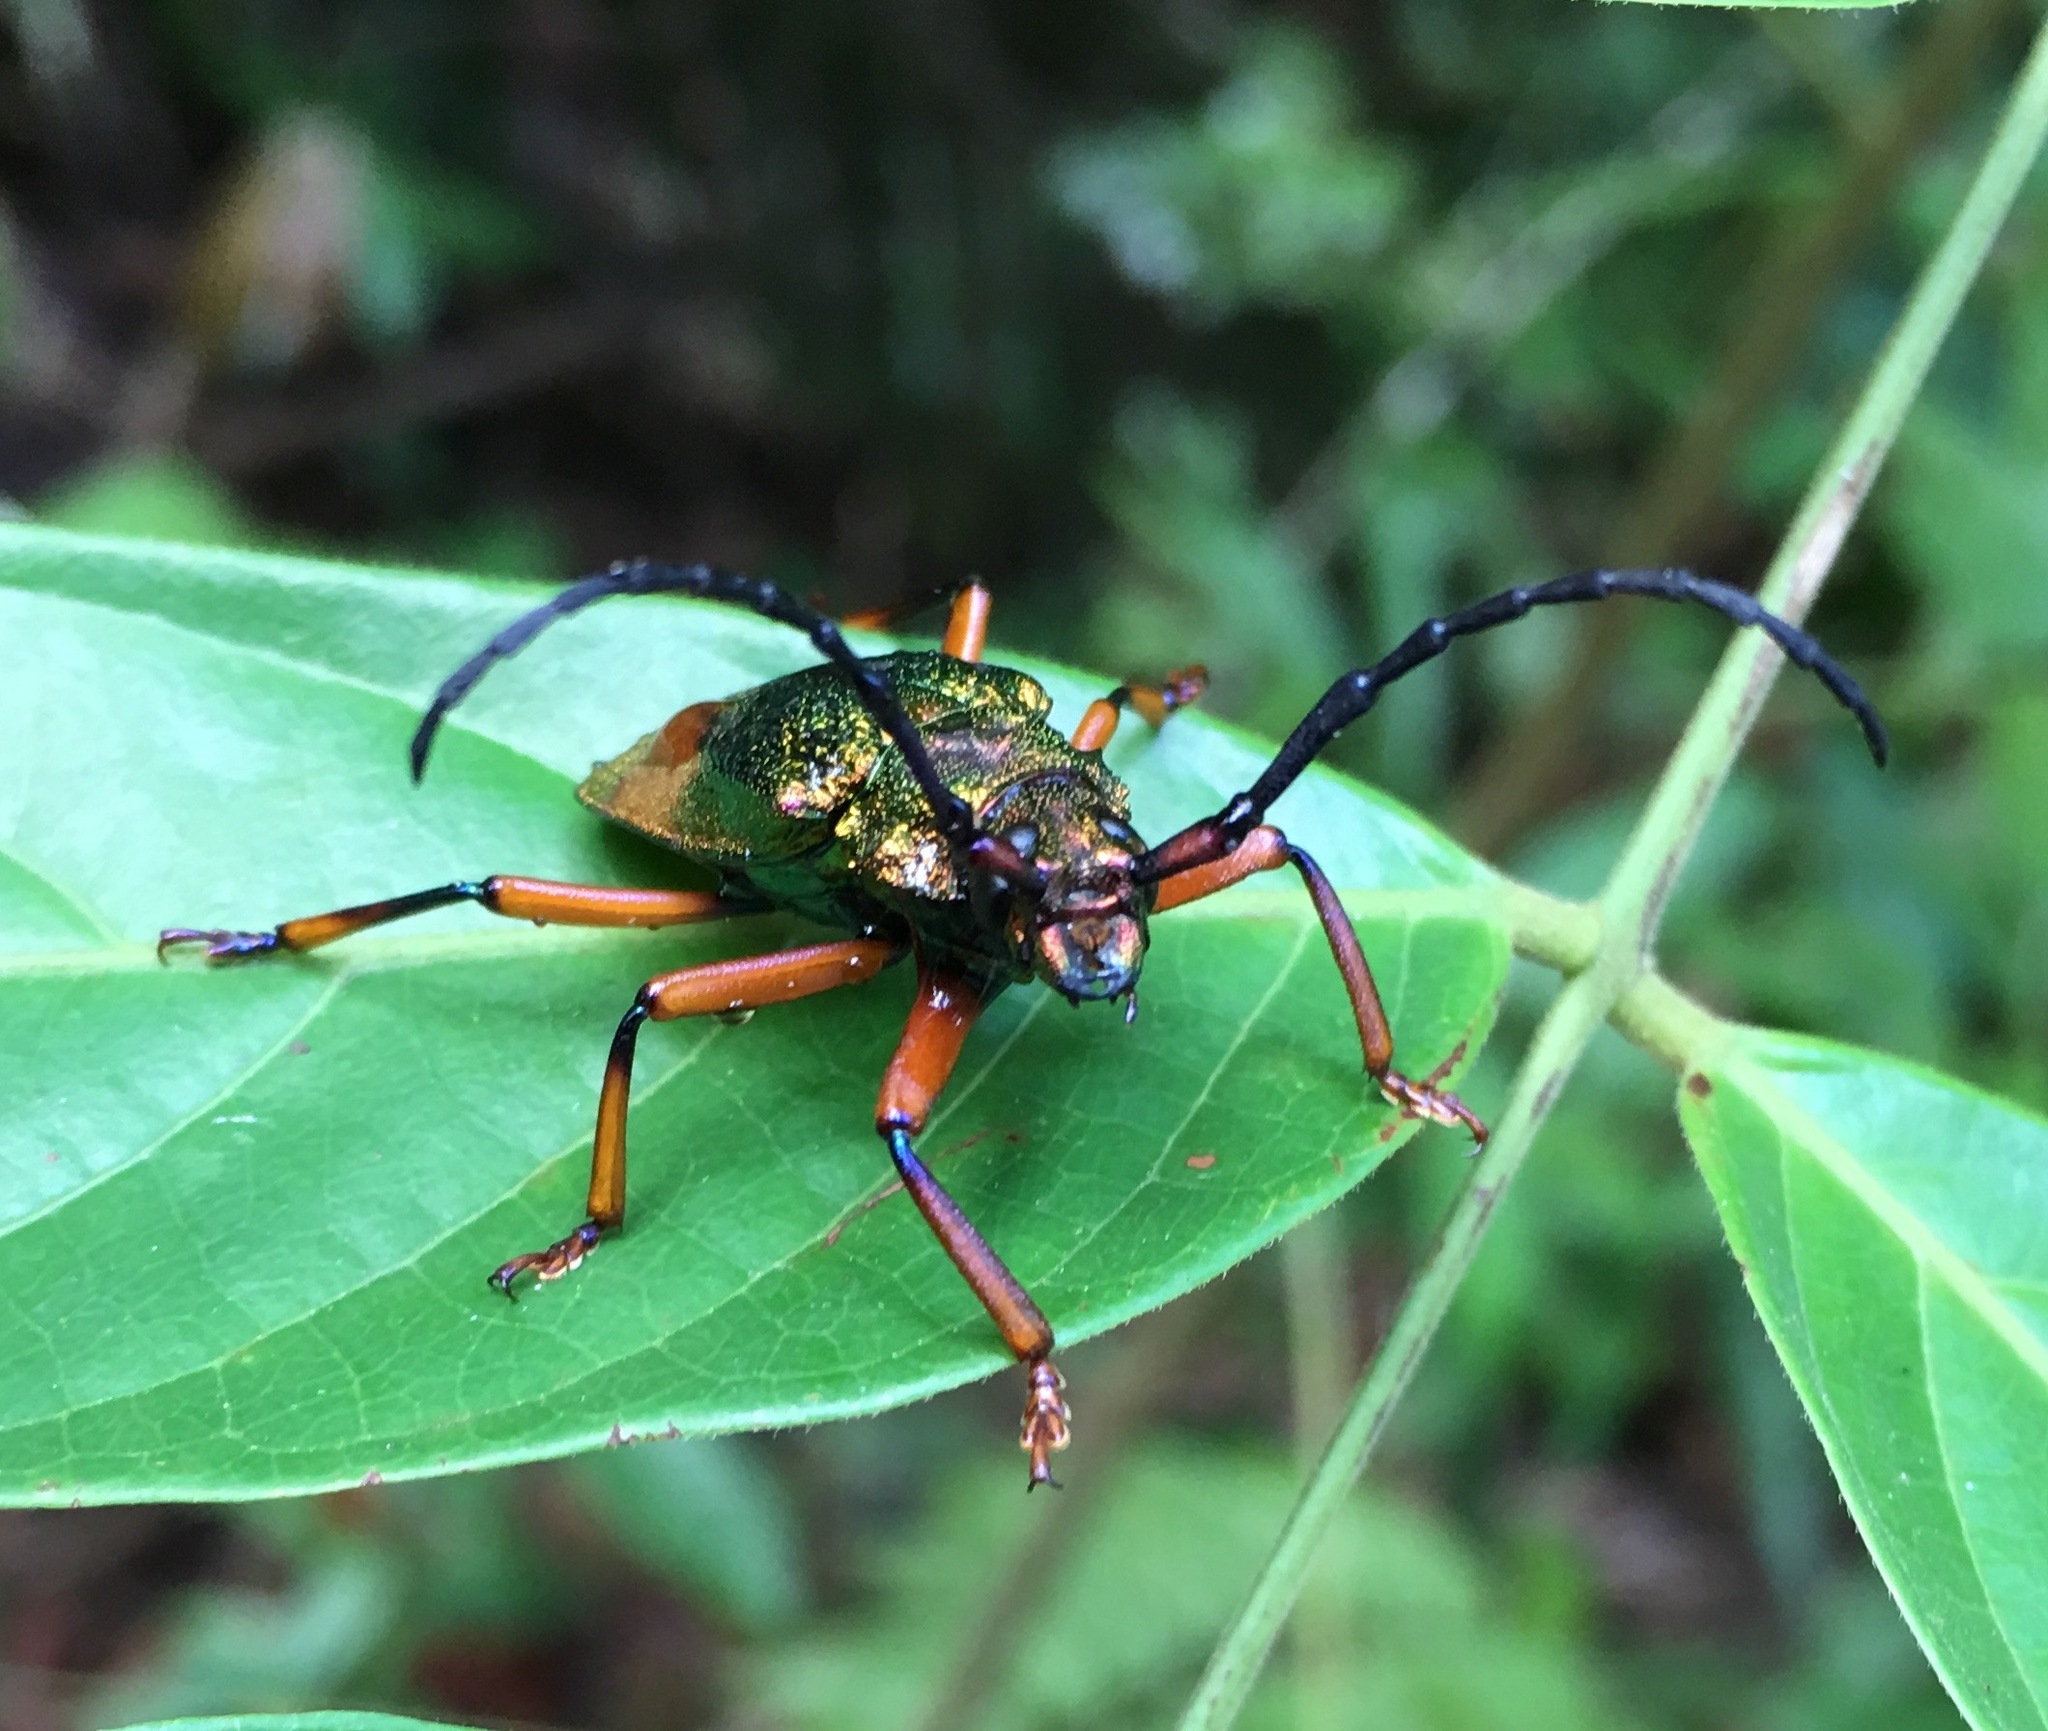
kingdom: Animalia
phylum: Arthropoda
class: Insecta
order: Coleoptera
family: Cerambycidae
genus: Hileolaspis
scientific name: Hileolaspis auratus
